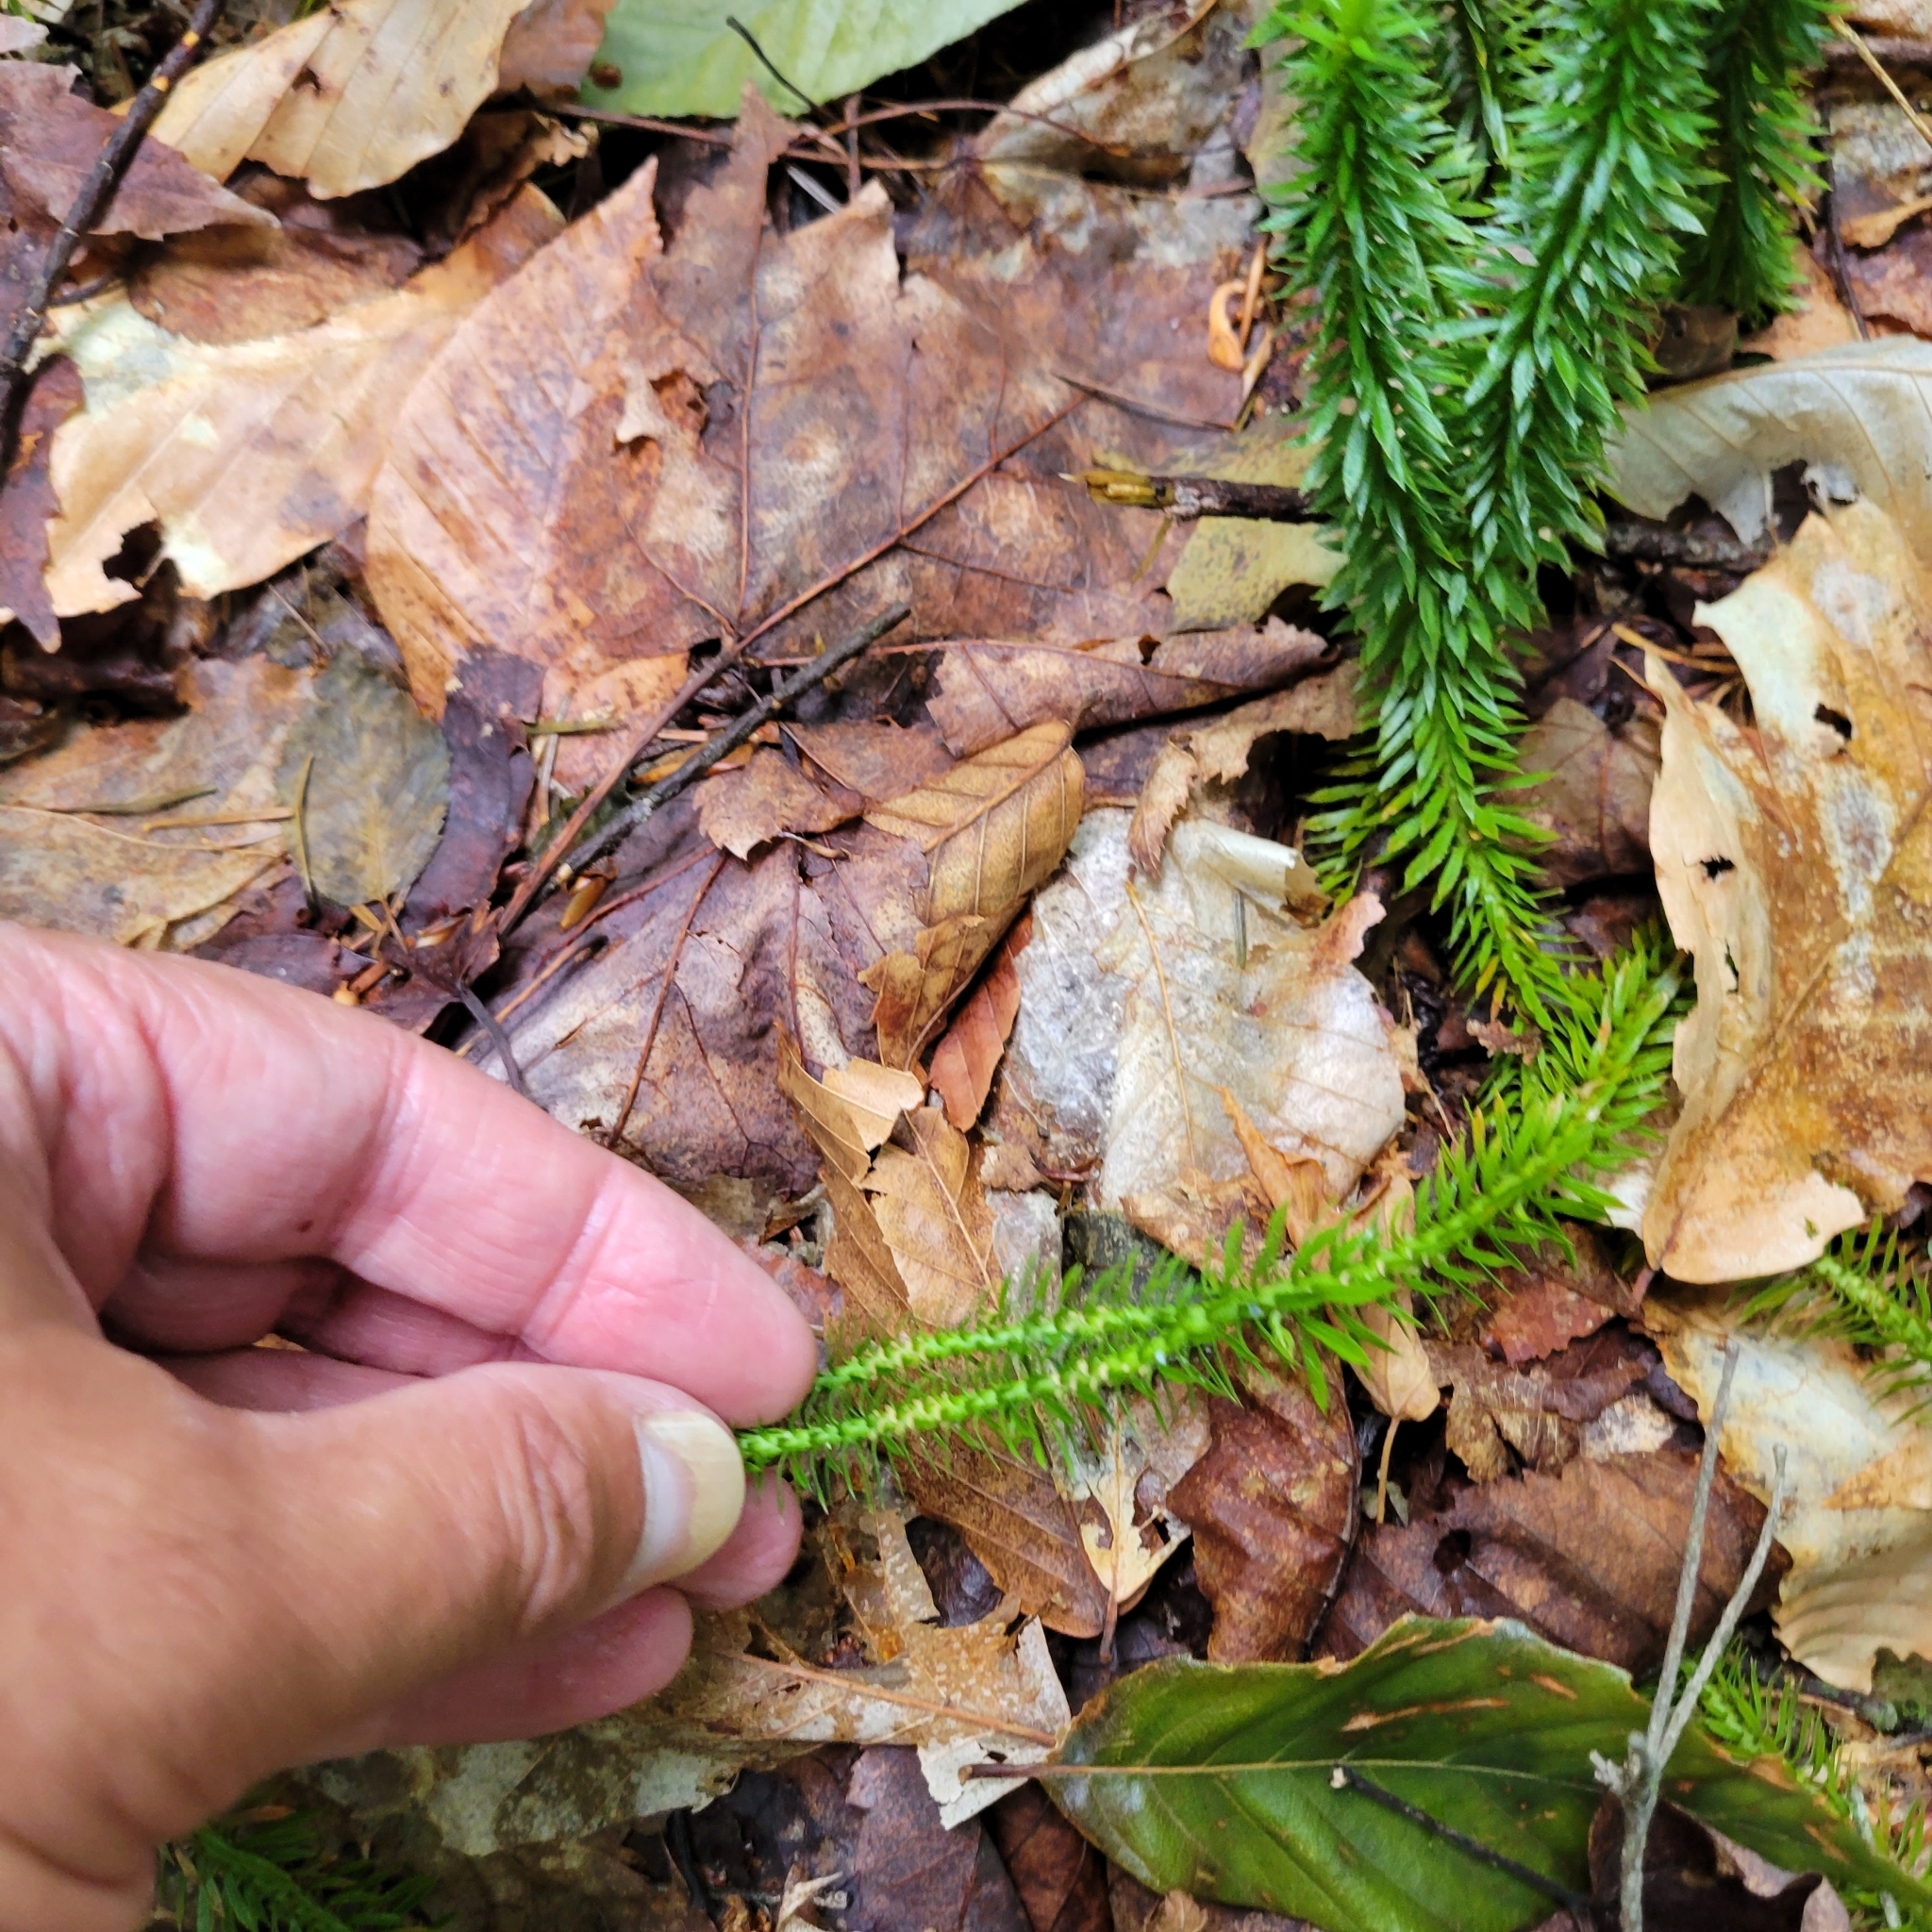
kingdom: Plantae
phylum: Tracheophyta
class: Lycopodiopsida
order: Lycopodiales
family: Lycopodiaceae
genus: Huperzia
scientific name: Huperzia lucidula
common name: Shining clubmoss
